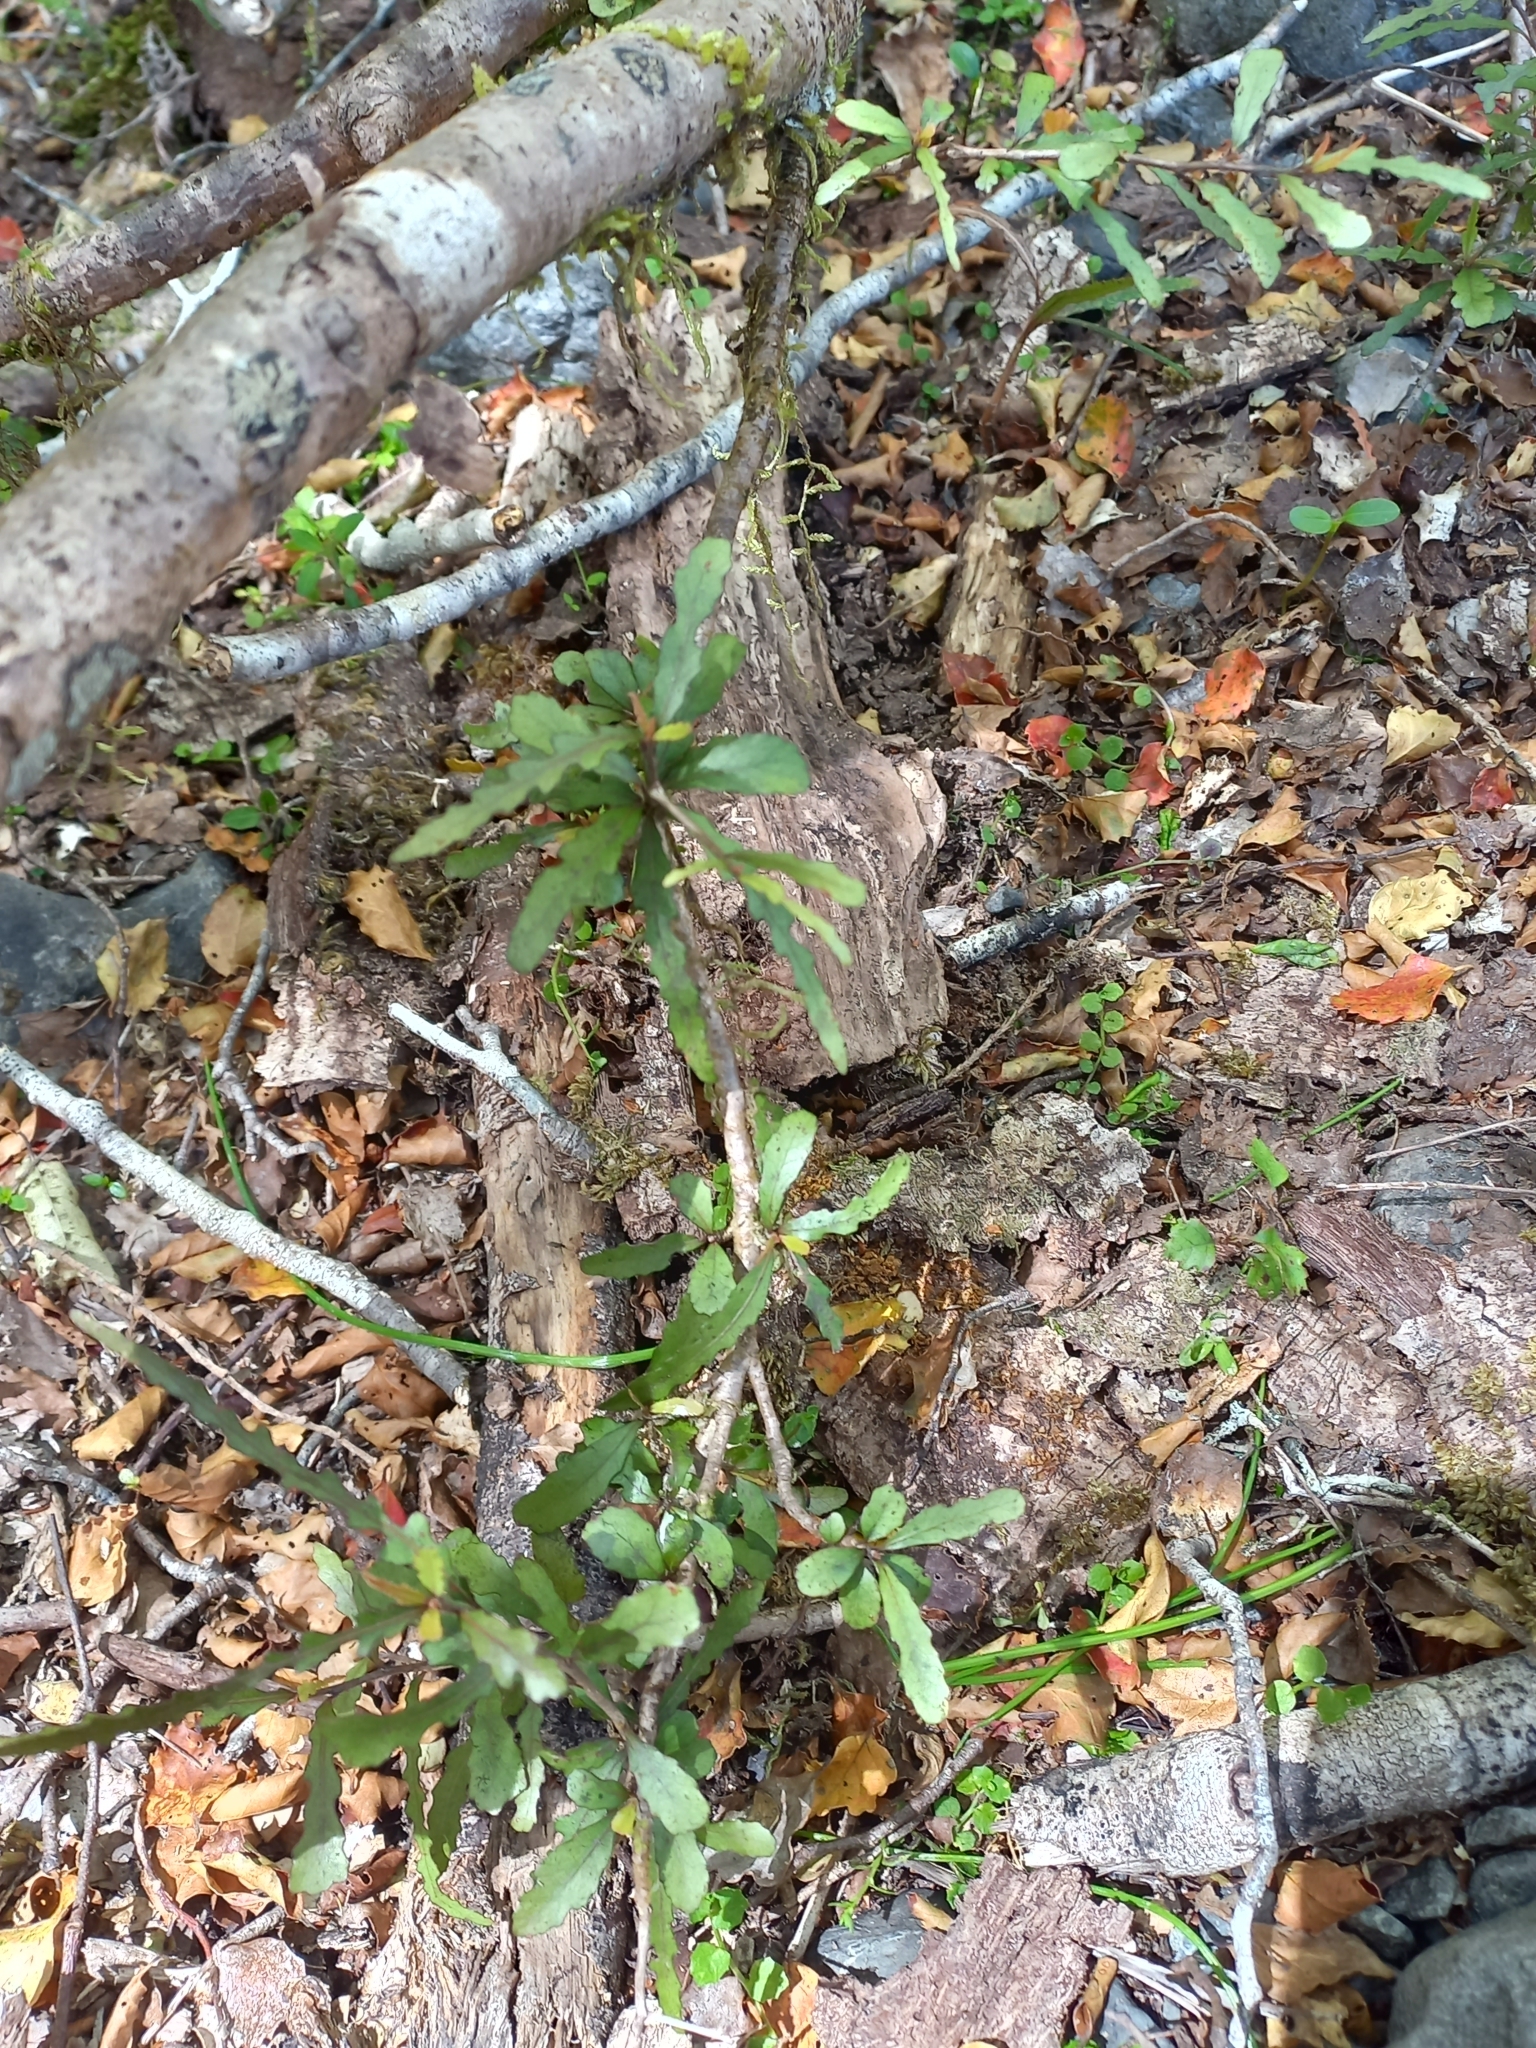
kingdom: Plantae
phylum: Tracheophyta
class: Magnoliopsida
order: Oxalidales
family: Elaeocarpaceae
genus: Elaeocarpus
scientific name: Elaeocarpus hookerianus
